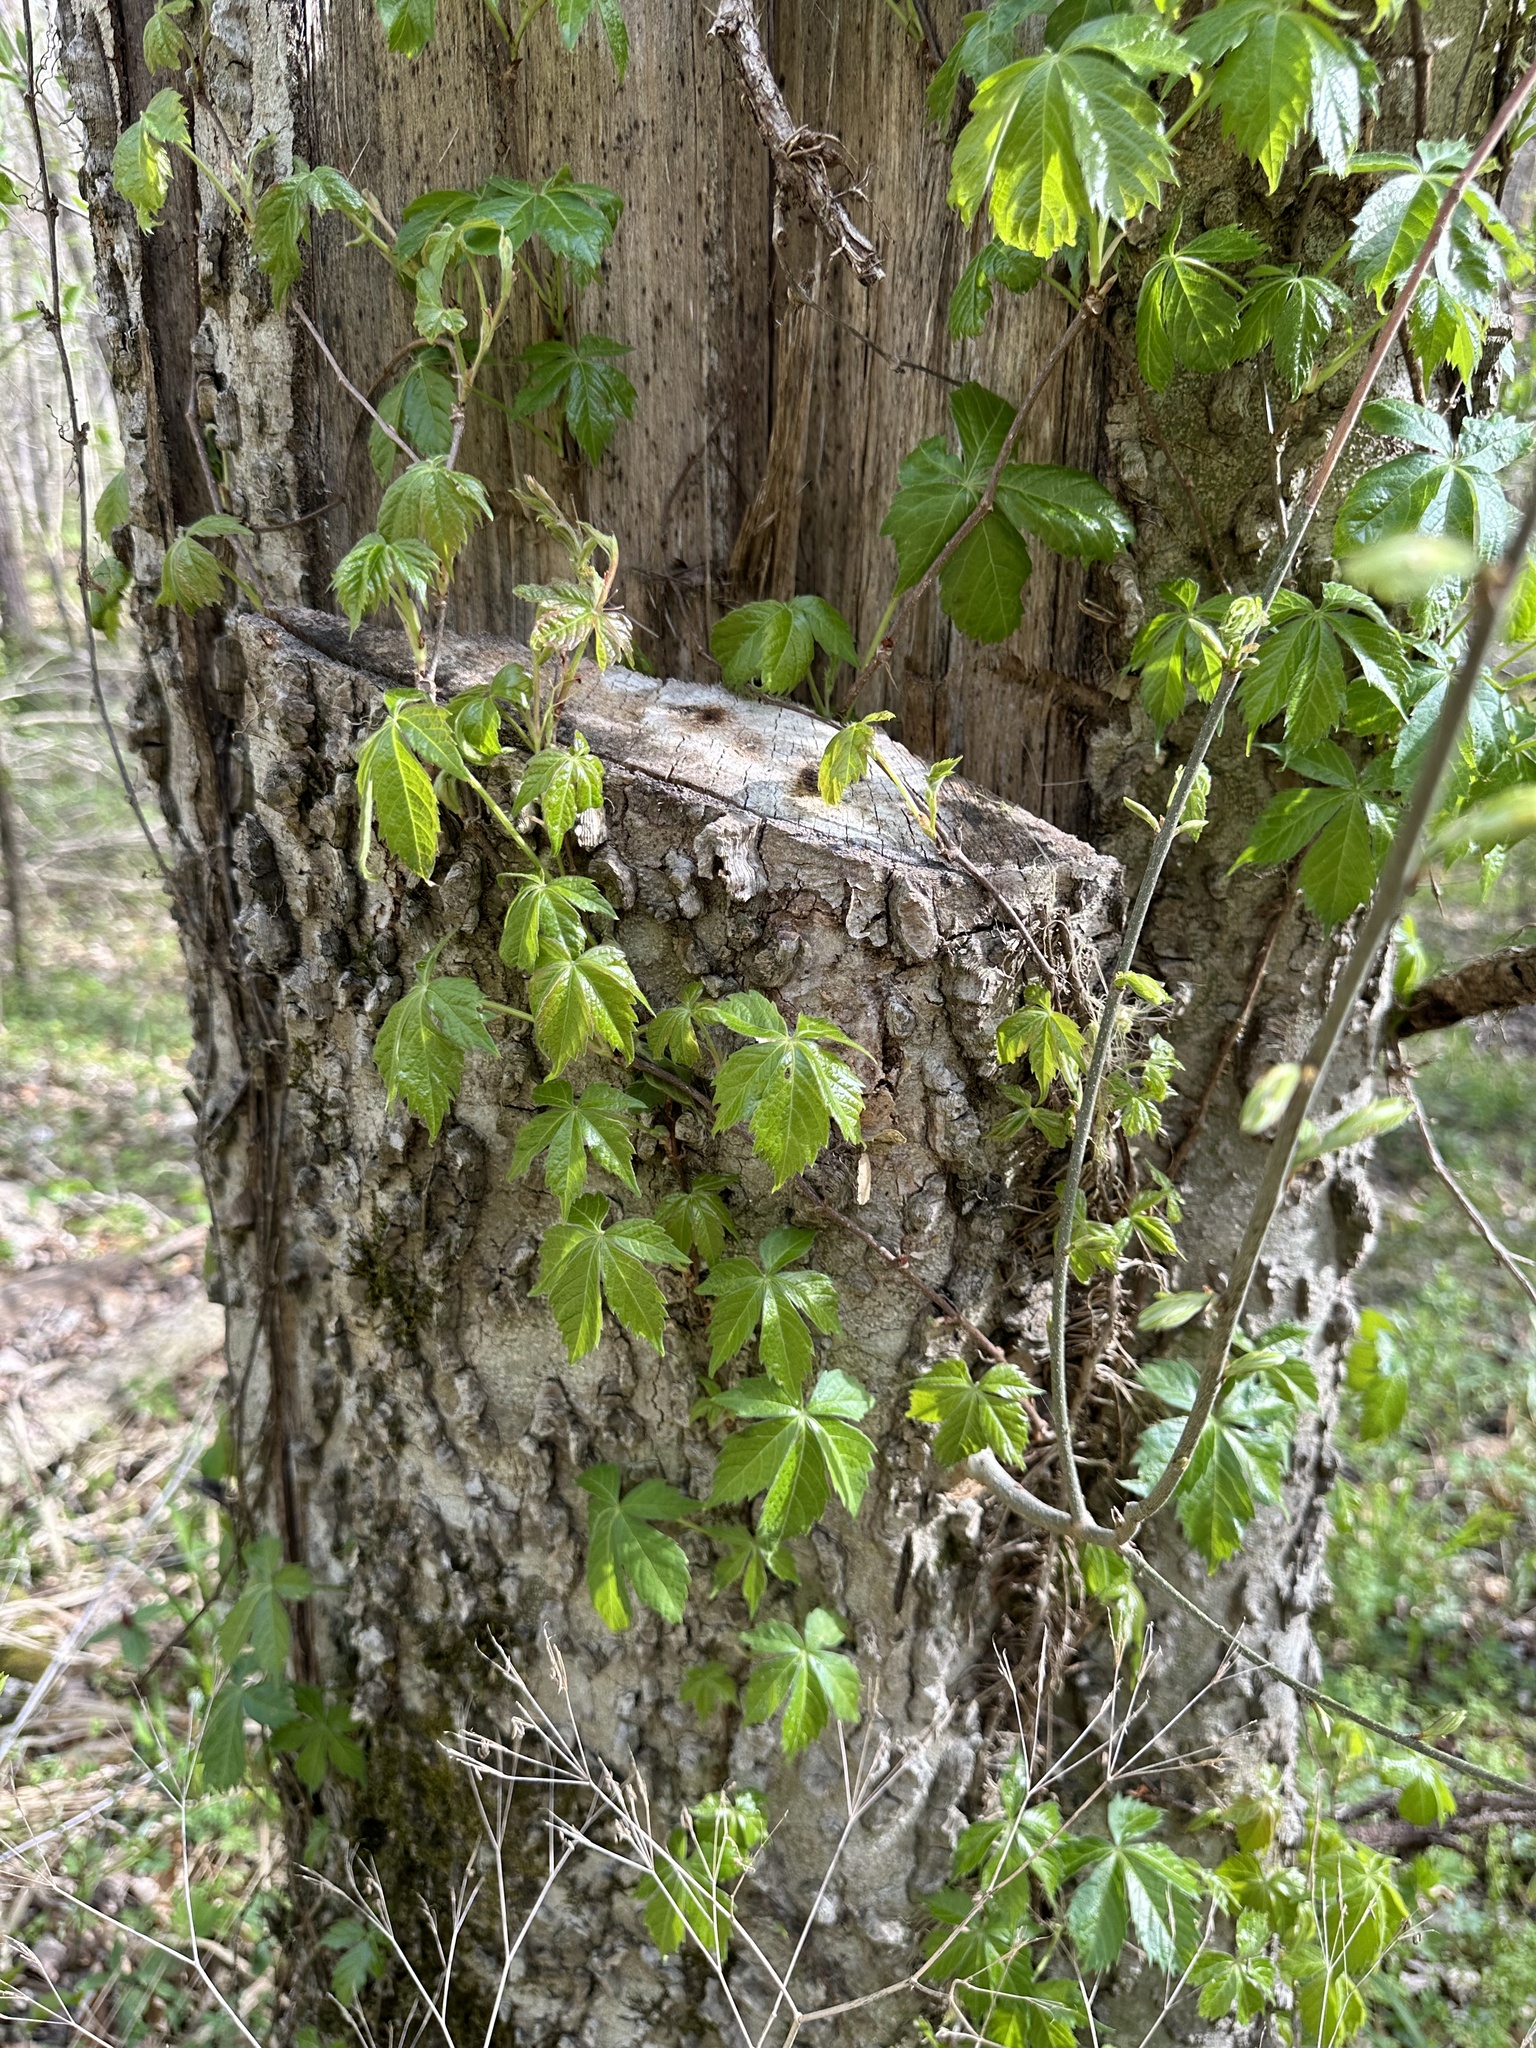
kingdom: Plantae
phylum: Tracheophyta
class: Magnoliopsida
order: Vitales
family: Vitaceae
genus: Parthenocissus
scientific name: Parthenocissus quinquefolia
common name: Virginia-creeper
